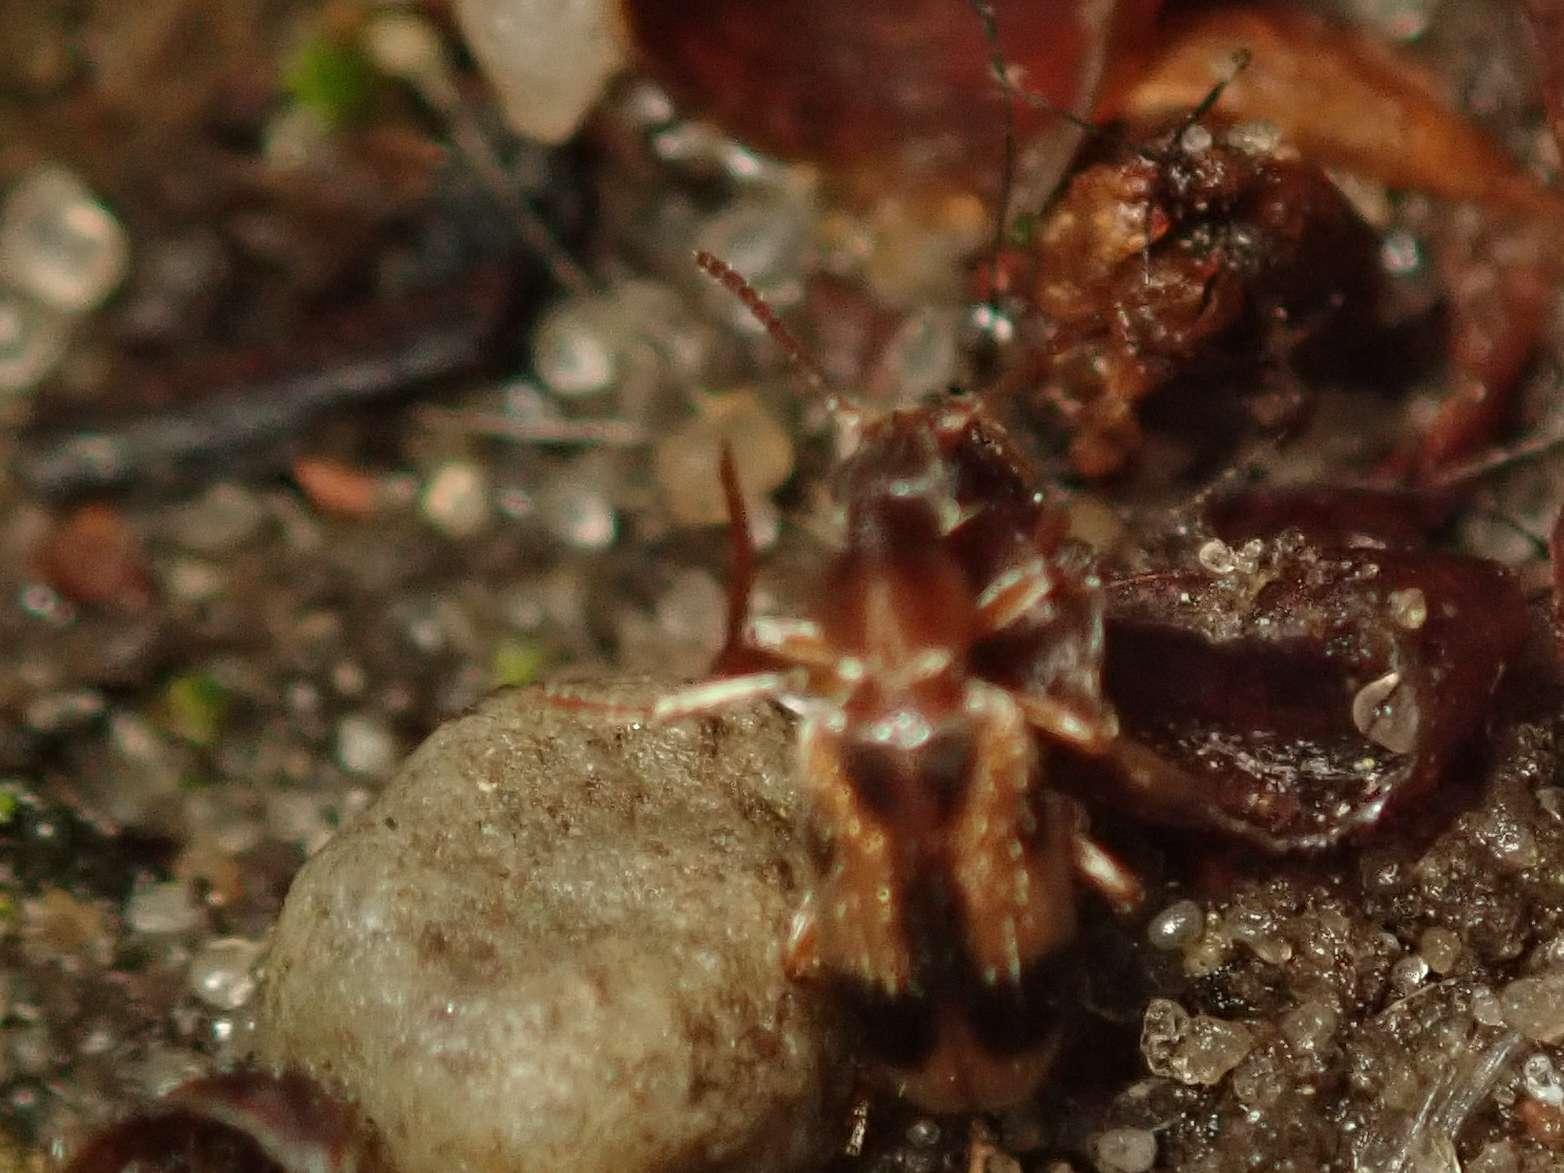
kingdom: Animalia
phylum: Arthropoda
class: Insecta
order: Coleoptera
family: Anthicidae
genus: Notoxus
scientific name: Notoxus monoceros
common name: Monoceros beetle
